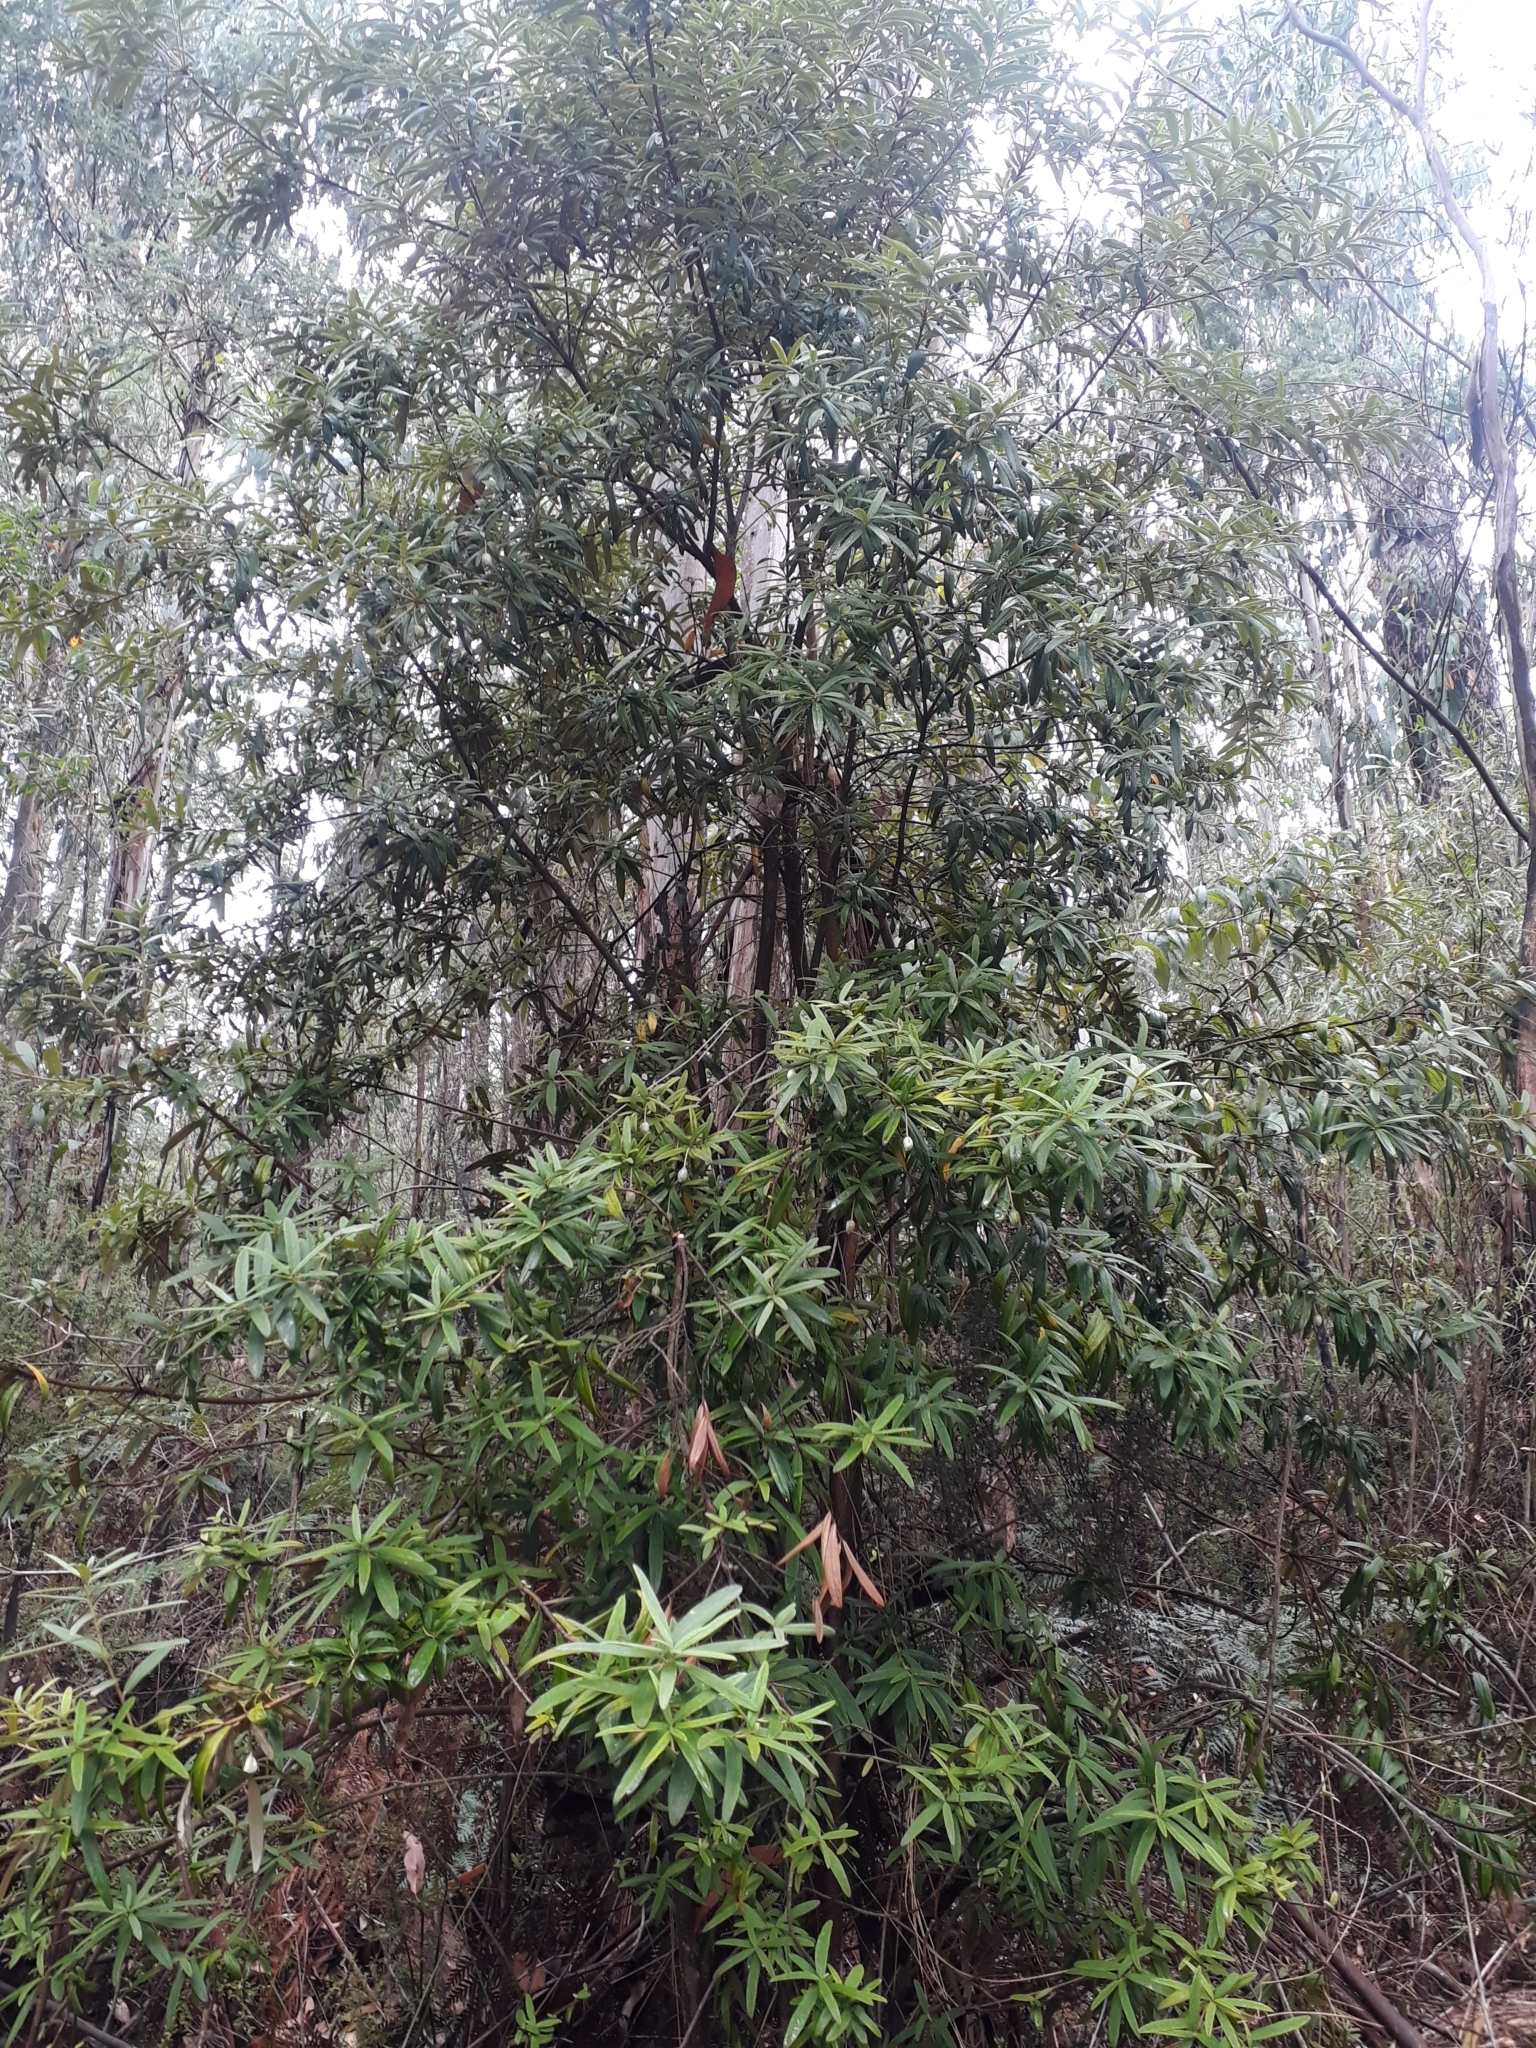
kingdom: Plantae
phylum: Tracheophyta
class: Magnoliopsida
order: Apiales
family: Pittosporaceae
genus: Pittosporum
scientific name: Pittosporum bicolor
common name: Tallowwood
